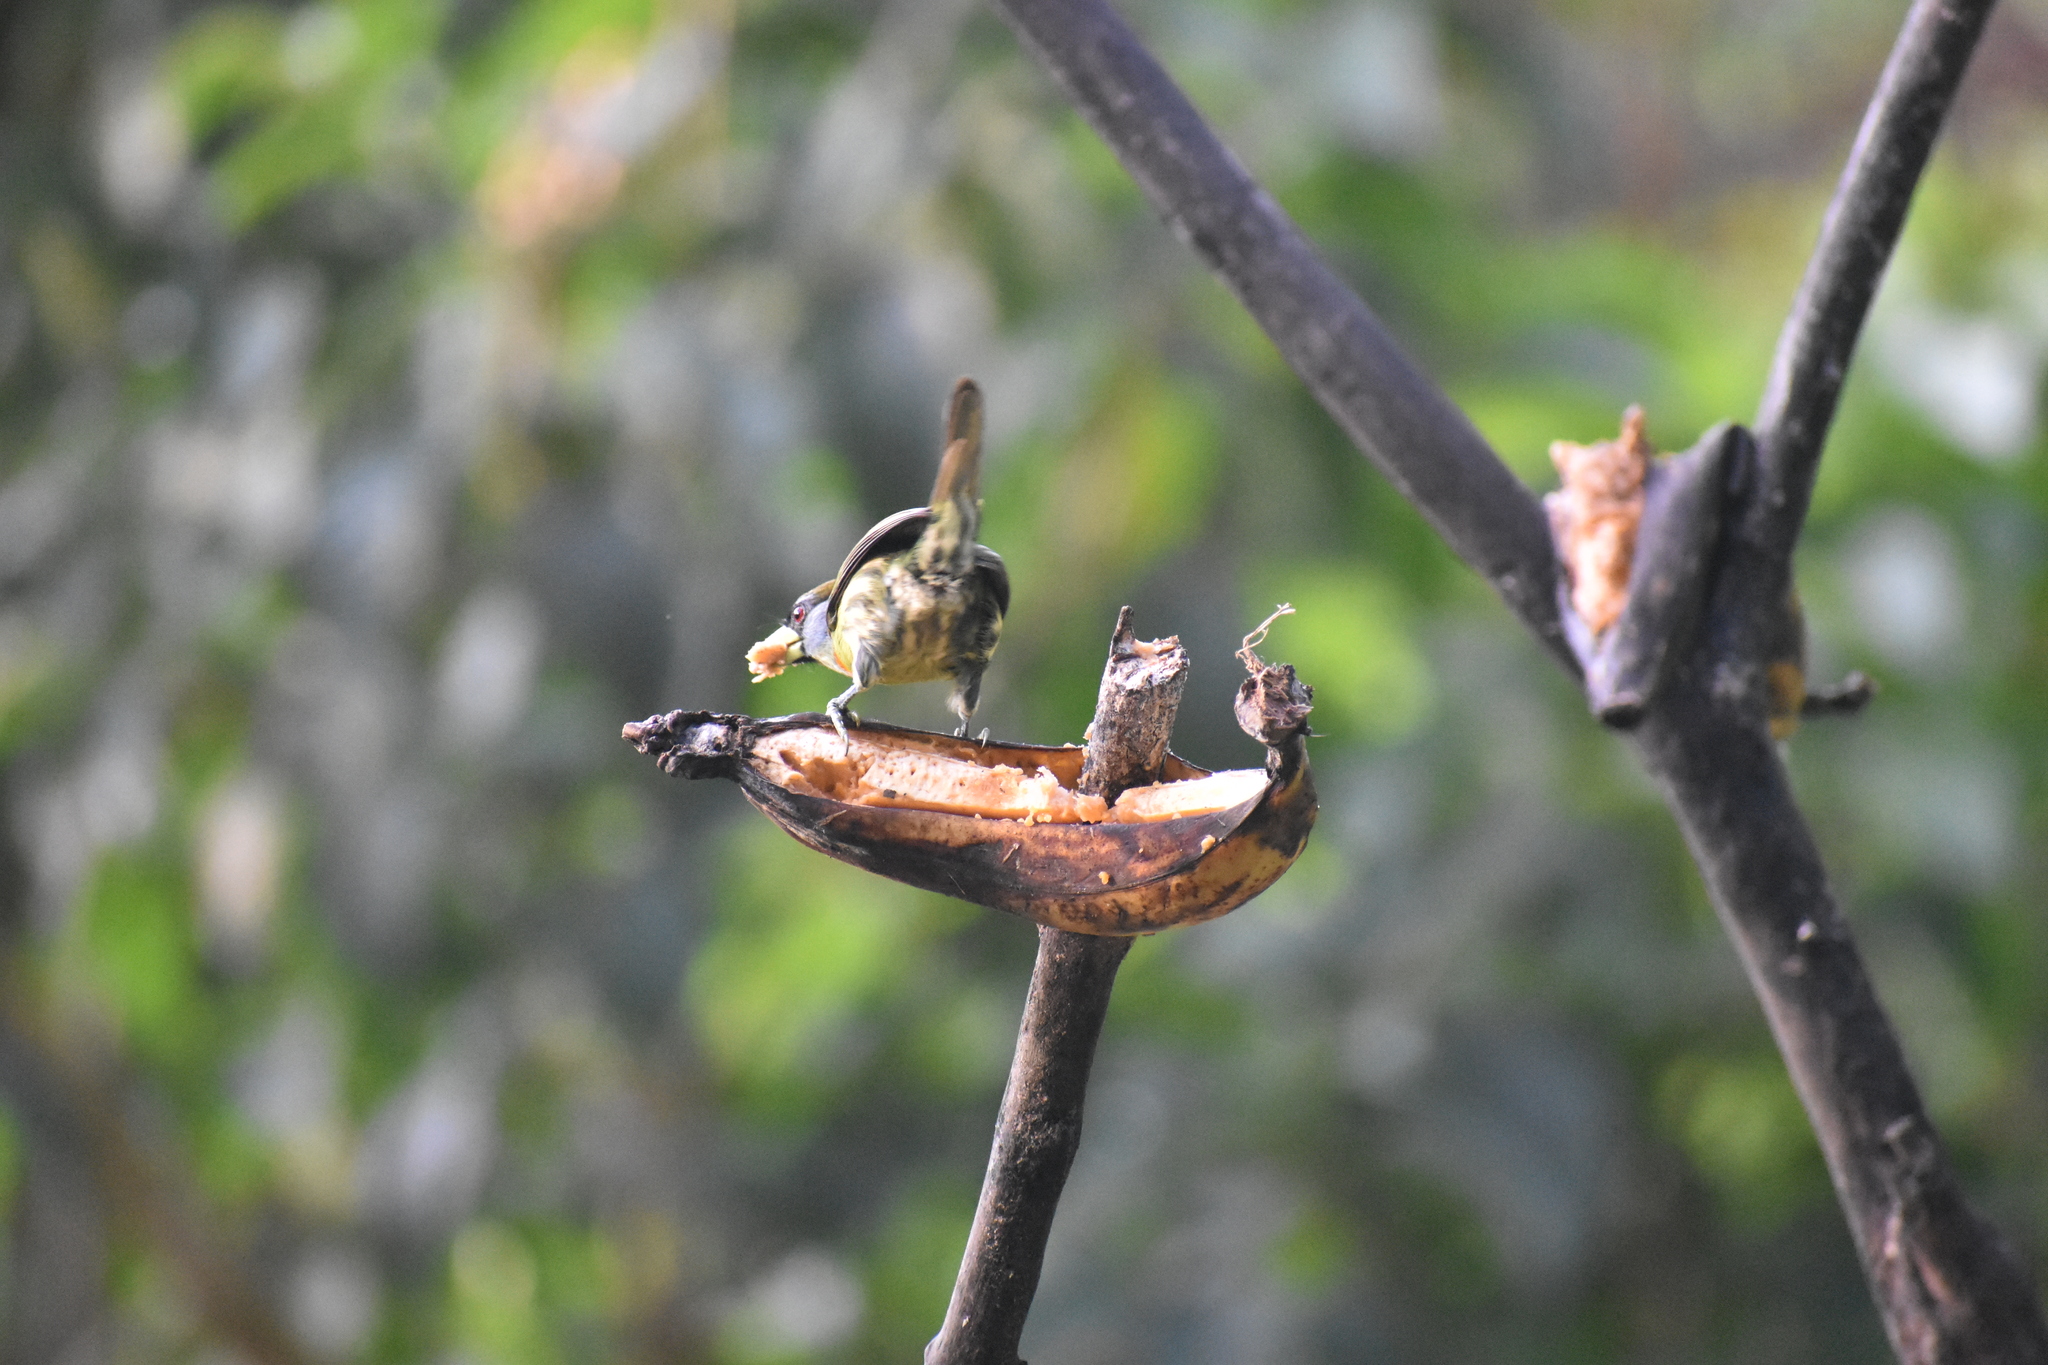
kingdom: Animalia
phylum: Chordata
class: Aves
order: Piciformes
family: Capitonidae
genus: Eubucco
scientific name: Eubucco bourcierii
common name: Red-headed barbet
